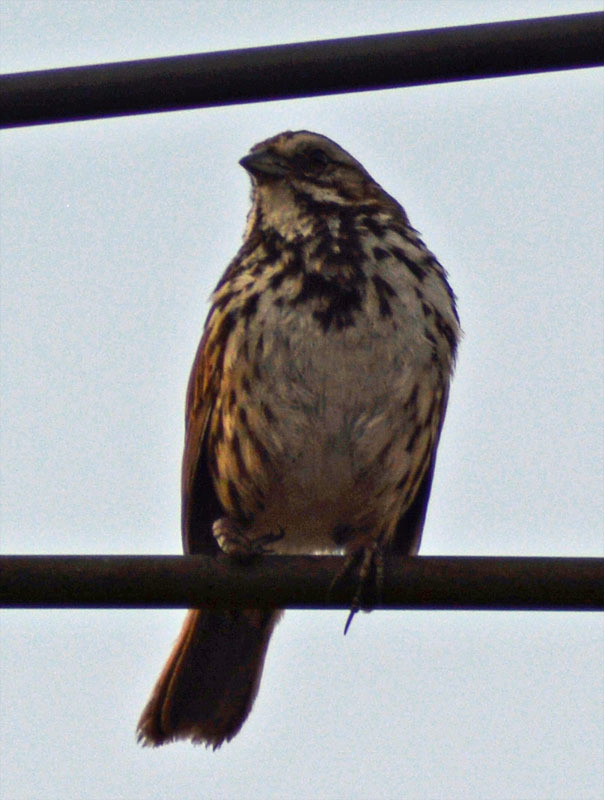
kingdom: Animalia
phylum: Chordata
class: Aves
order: Passeriformes
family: Passerellidae
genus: Melospiza
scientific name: Melospiza melodia
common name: Song sparrow
